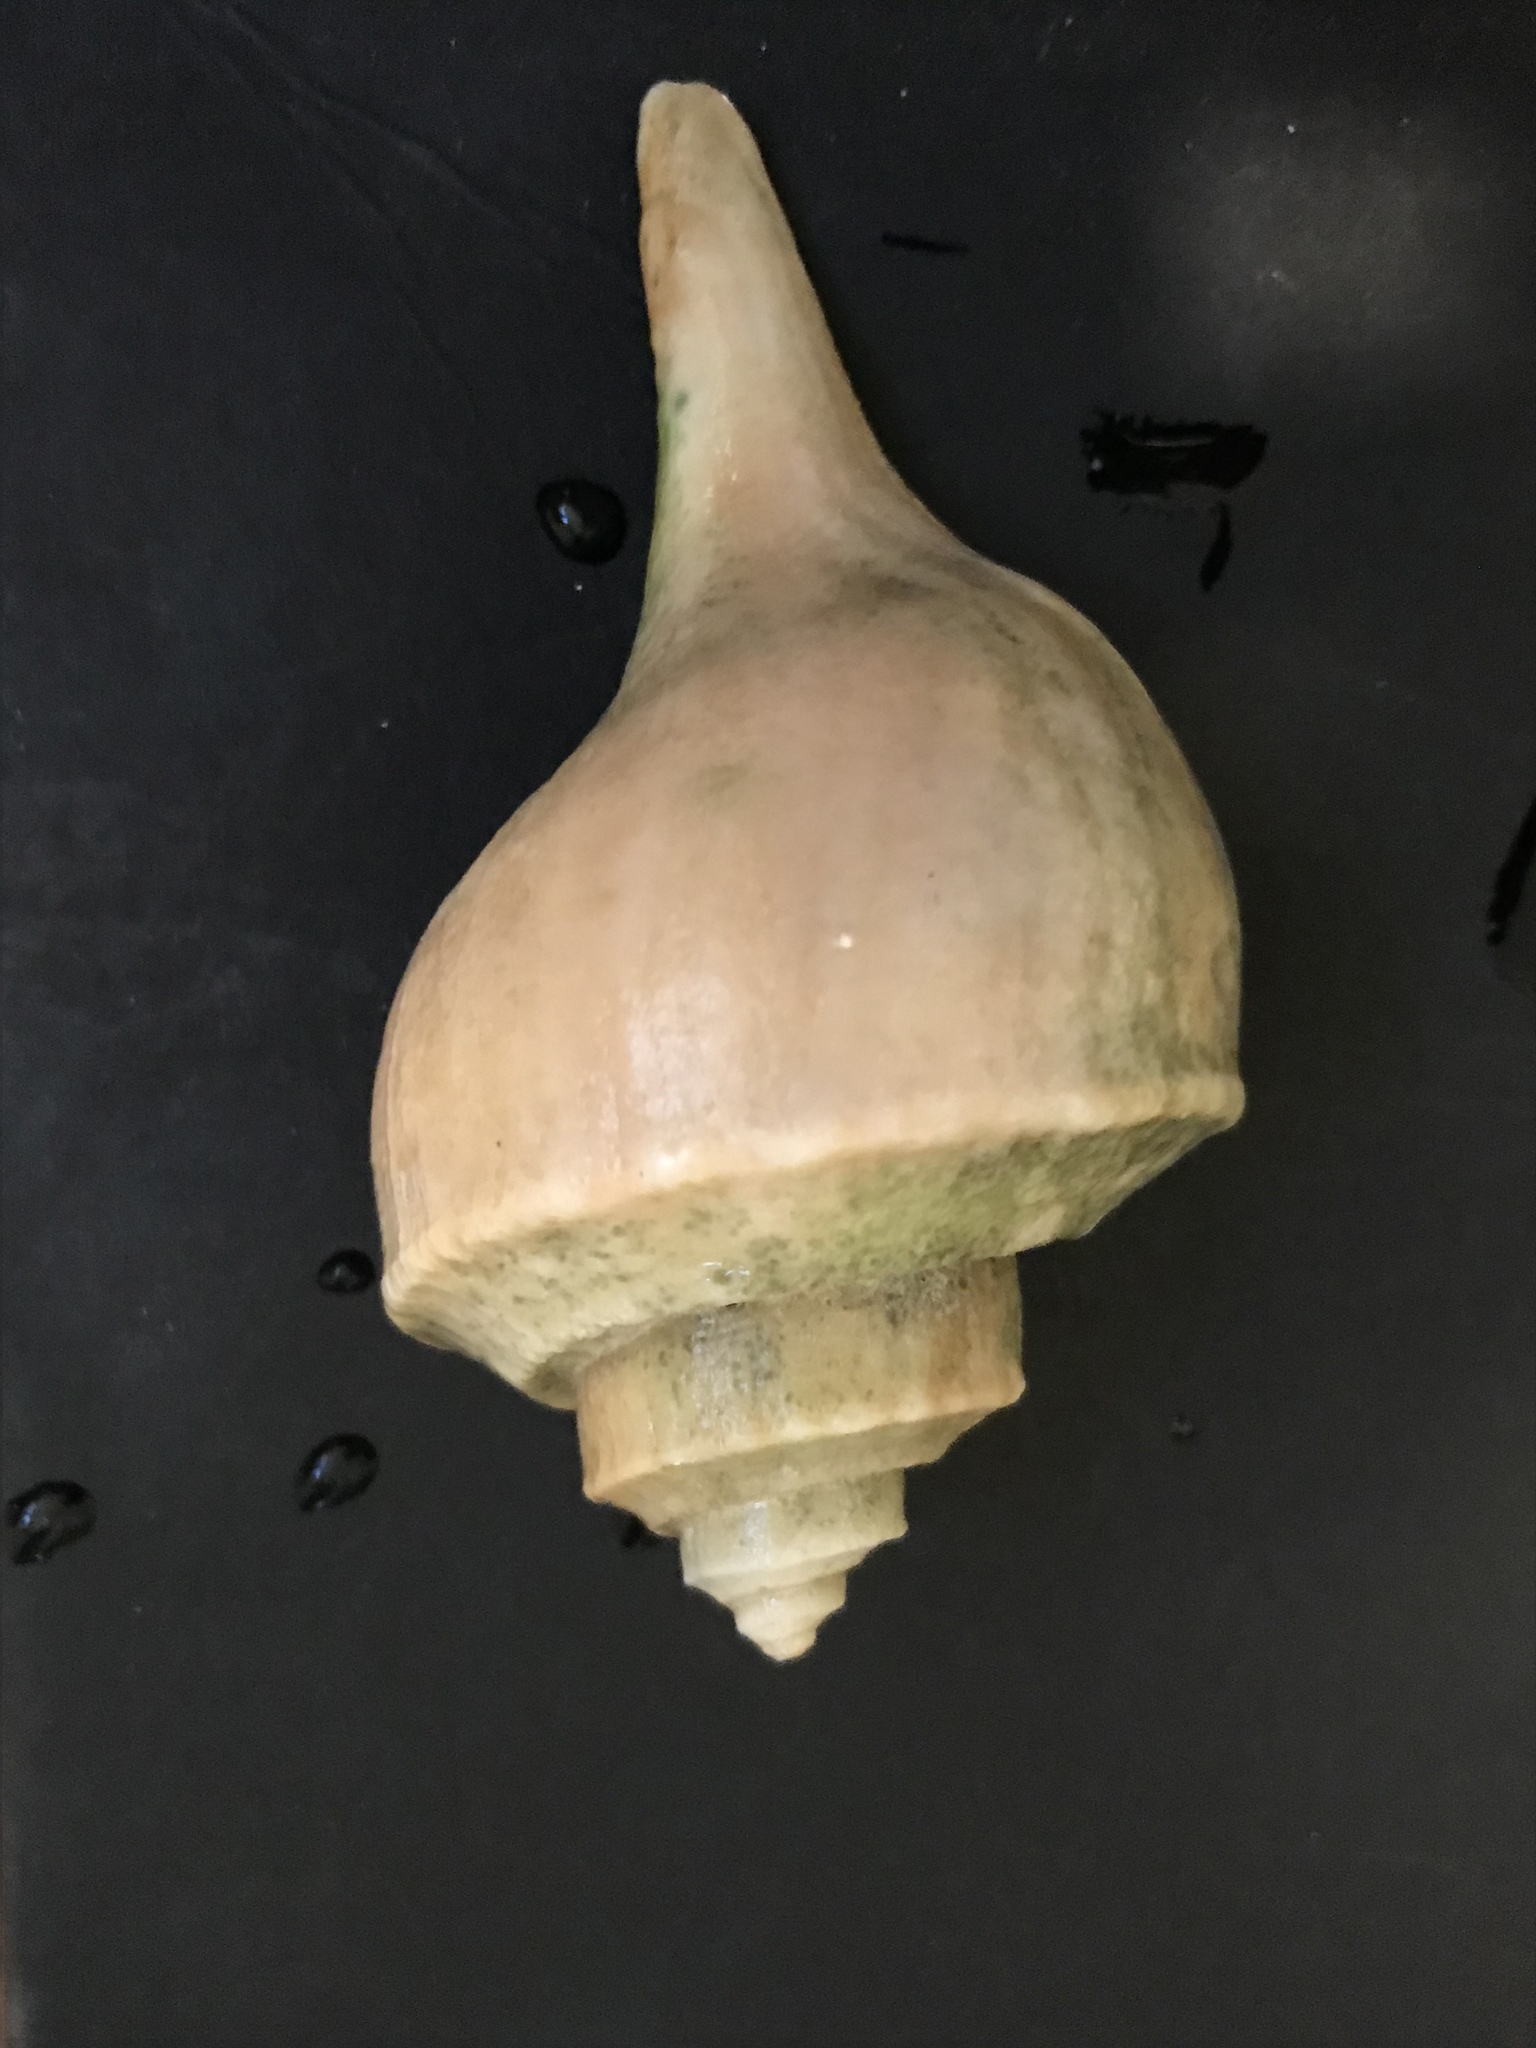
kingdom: Animalia
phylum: Mollusca
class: Gastropoda
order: Neogastropoda
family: Busyconidae
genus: Busycotypus
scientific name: Busycotypus canaliculatus
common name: Channeled whelk
